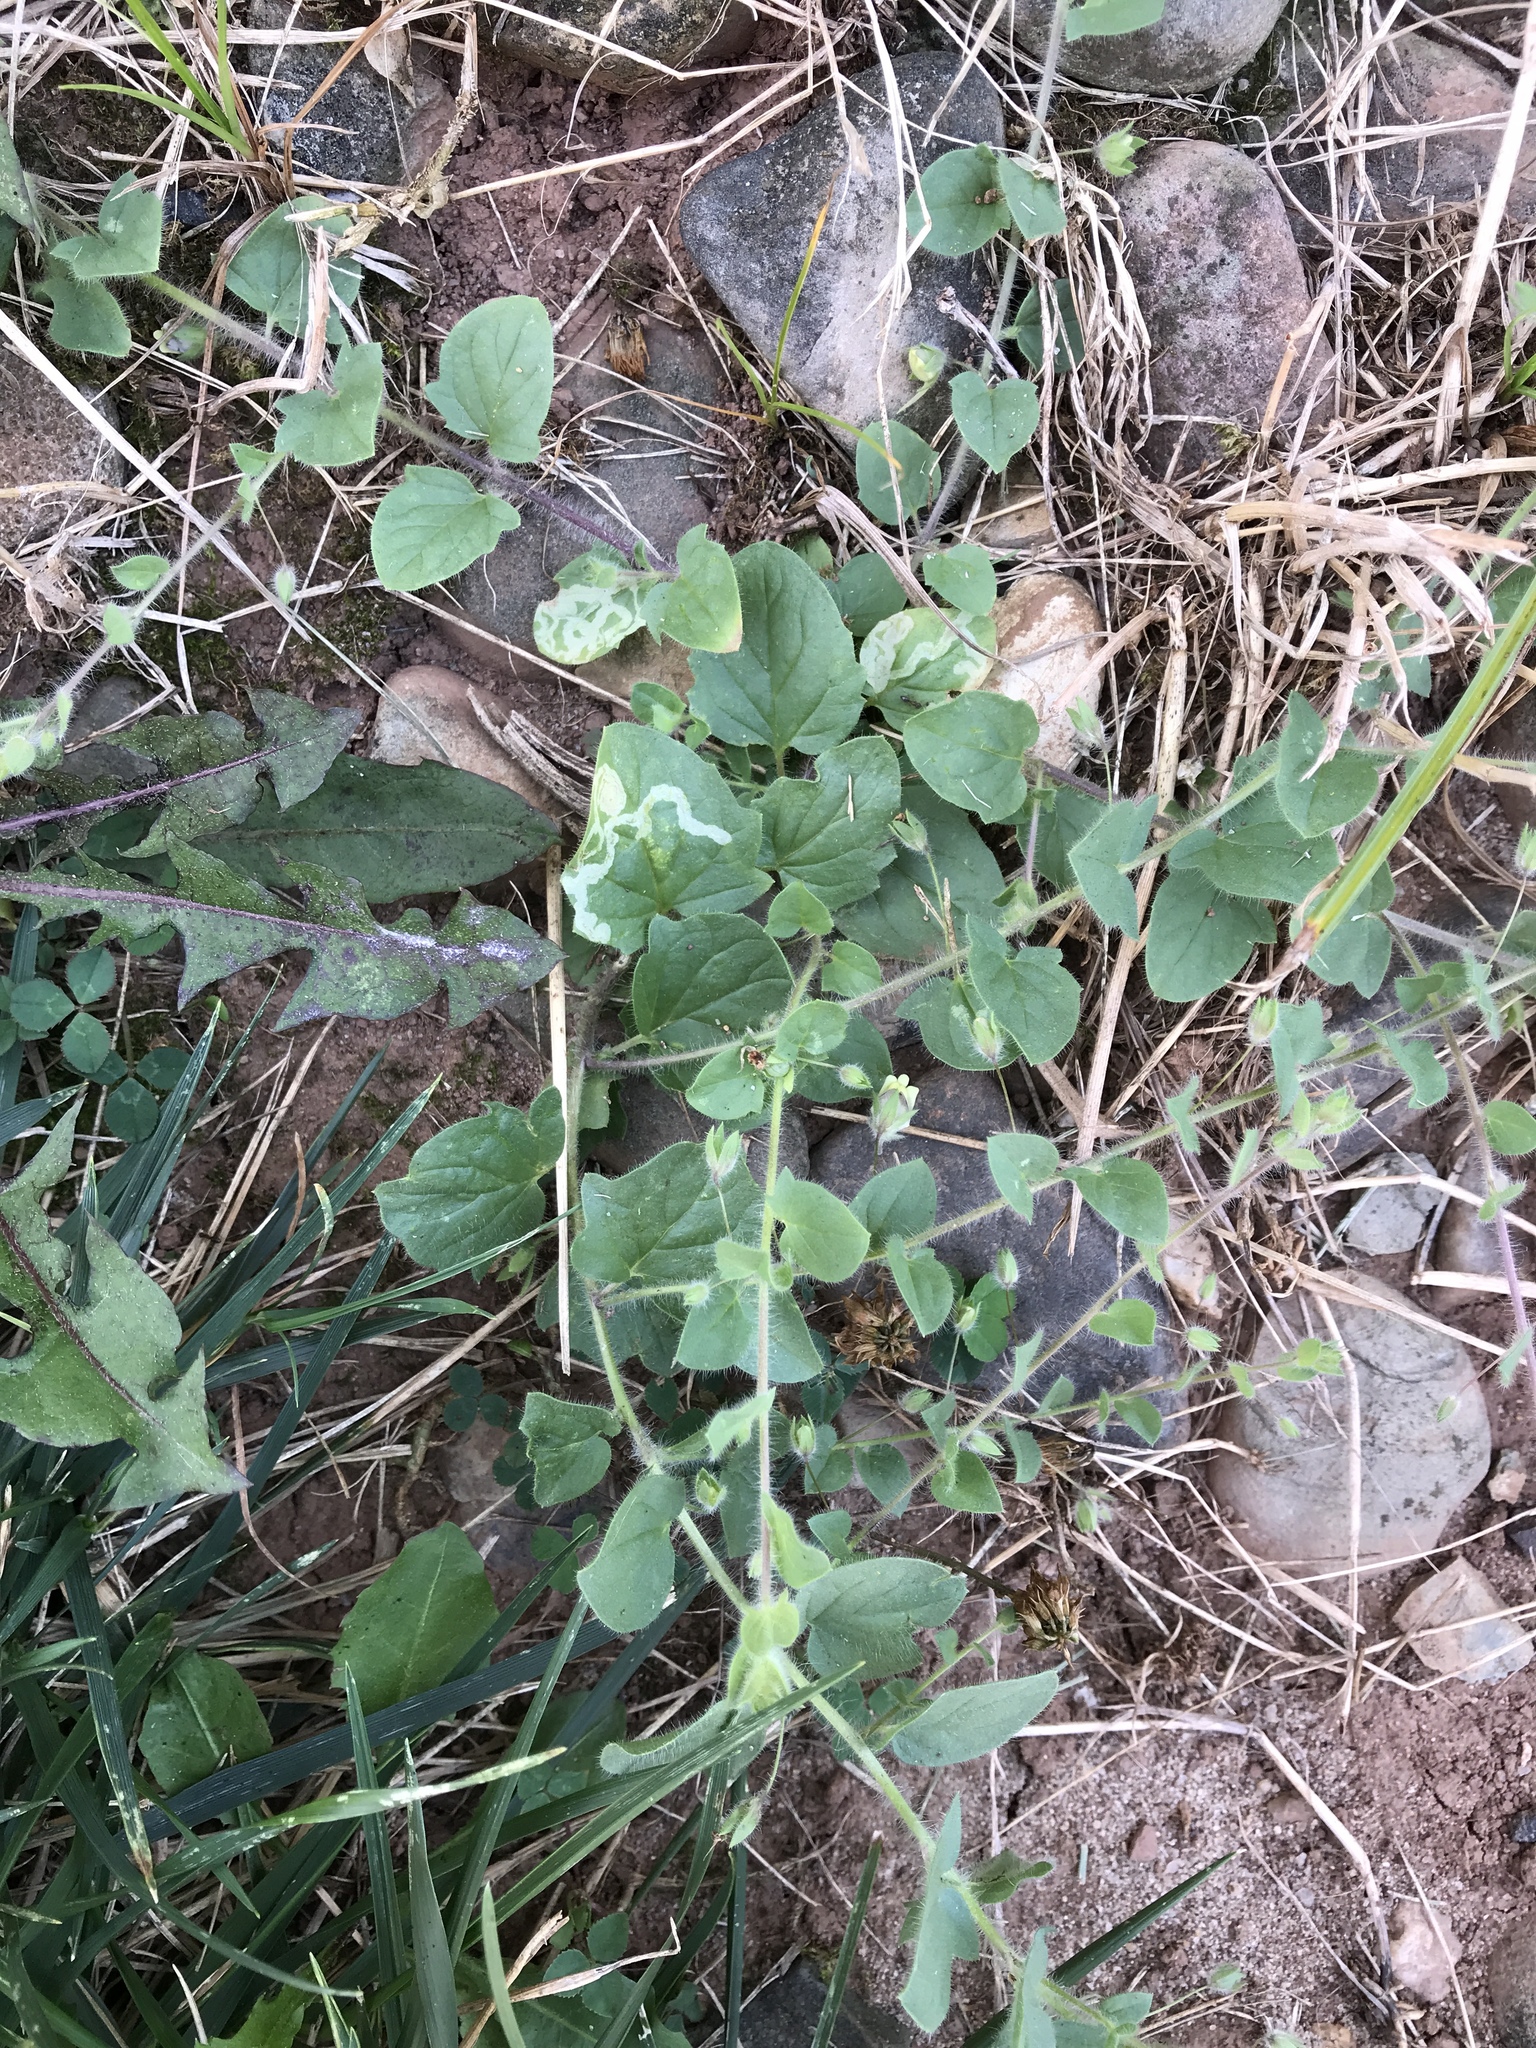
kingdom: Plantae
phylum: Tracheophyta
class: Magnoliopsida
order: Lamiales
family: Plantaginaceae
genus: Kickxia
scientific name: Kickxia elatine
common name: Sharp-leaved fluellen
